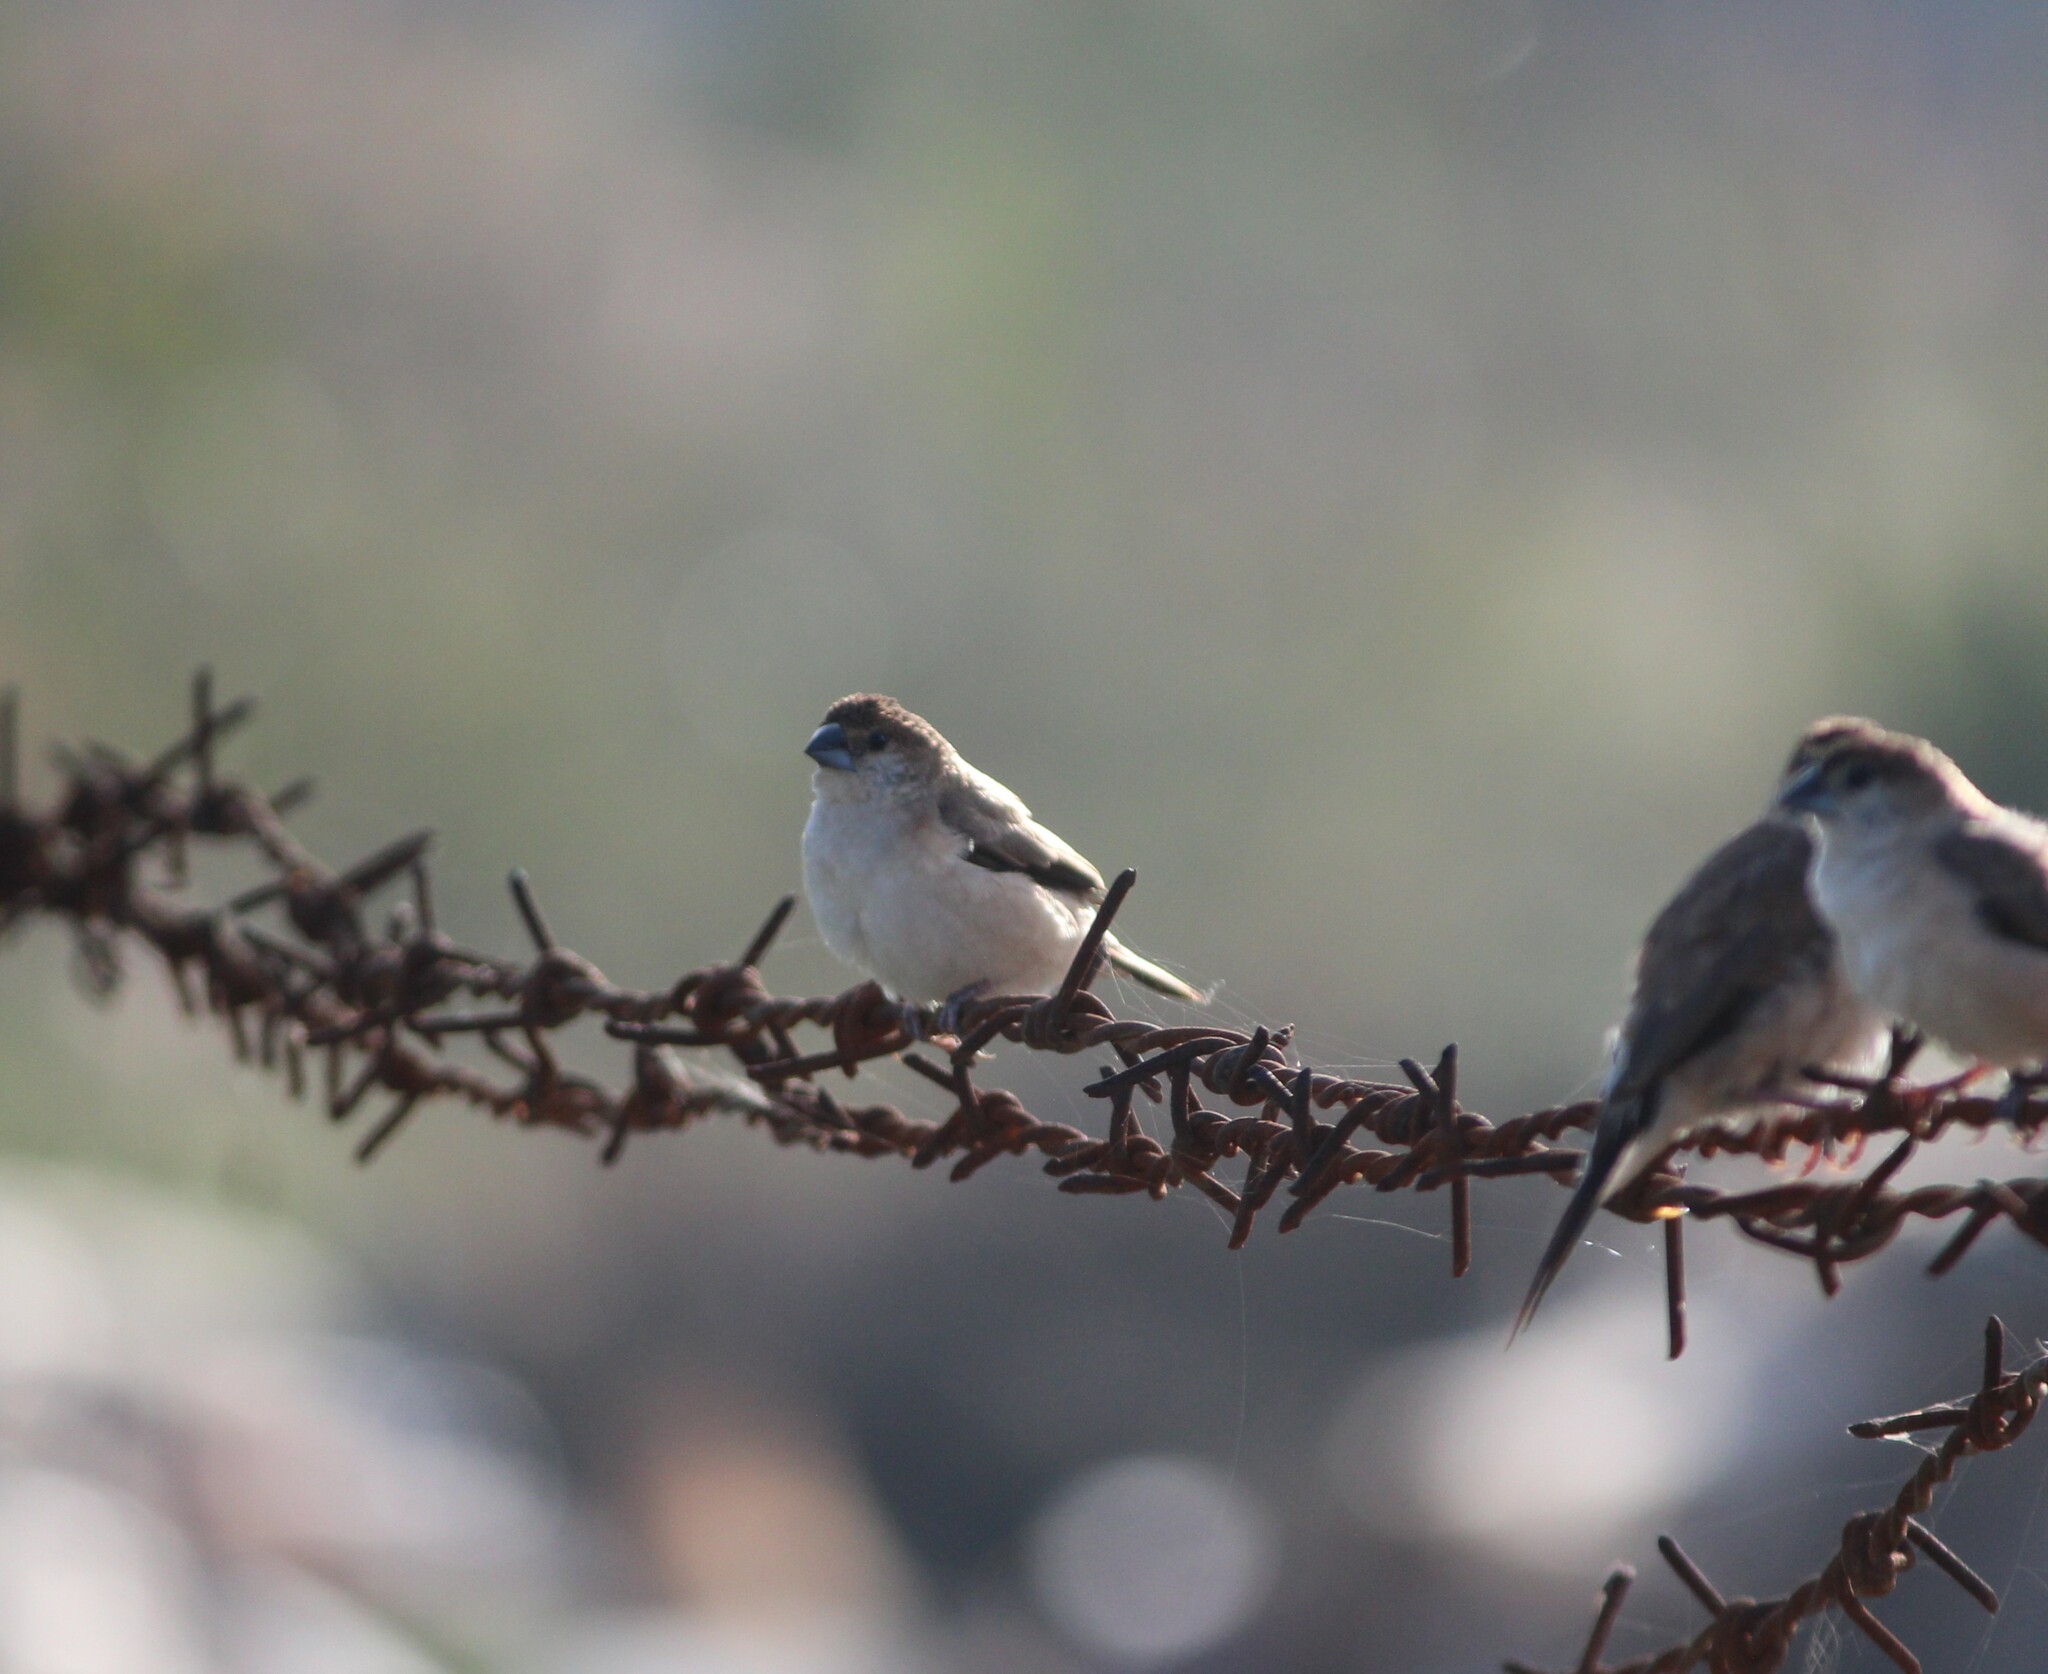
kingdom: Animalia
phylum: Chordata
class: Aves
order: Passeriformes
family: Estrildidae
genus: Euodice
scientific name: Euodice malabarica
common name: Indian silverbill
